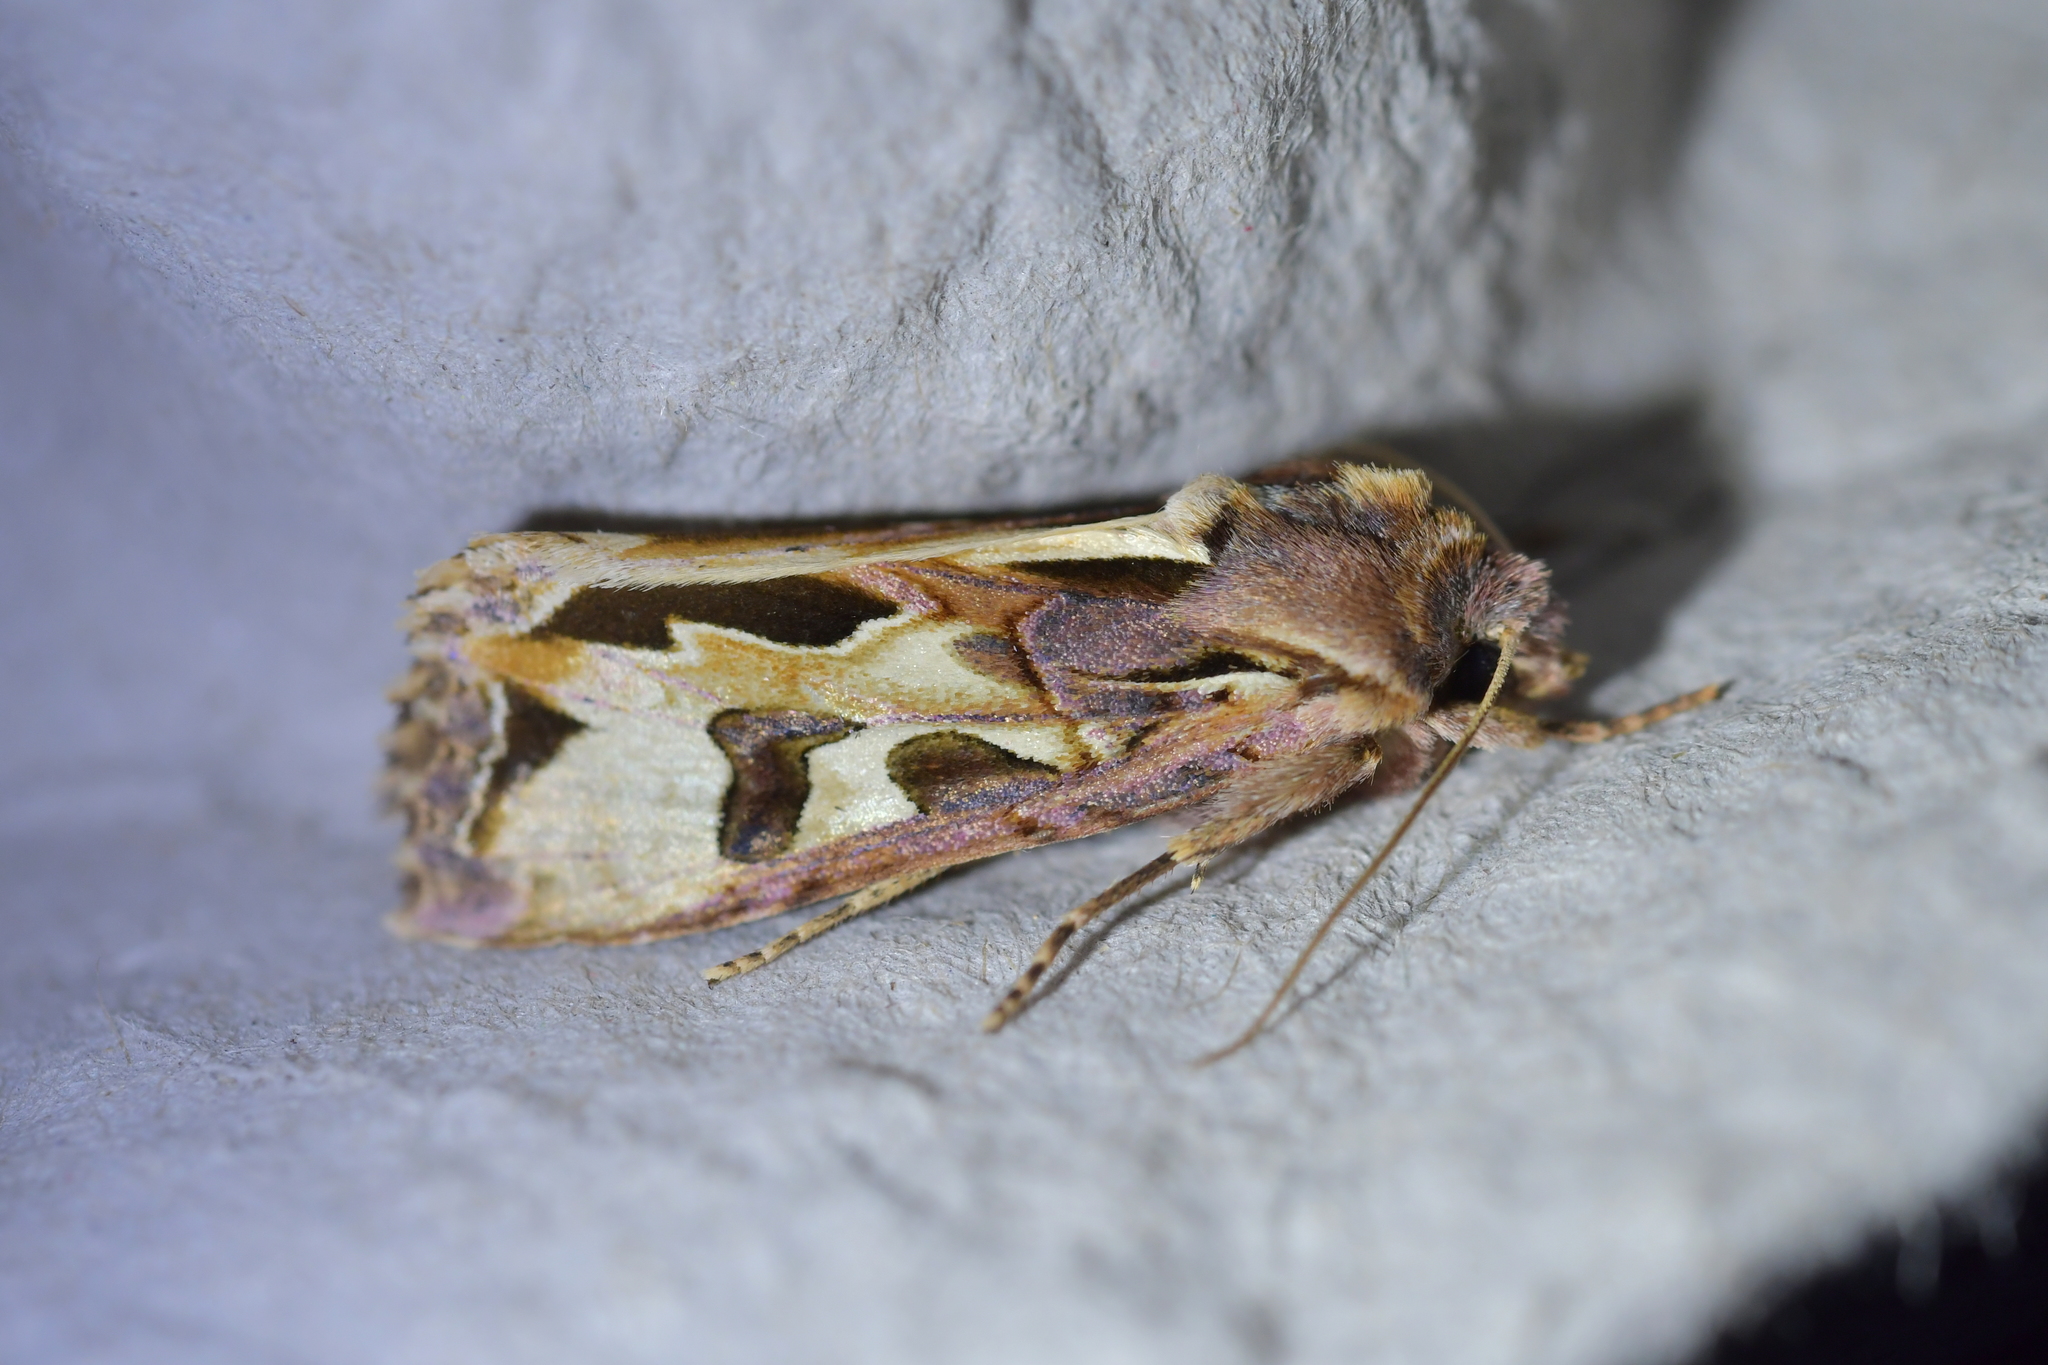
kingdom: Animalia
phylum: Arthropoda
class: Insecta
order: Lepidoptera
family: Noctuidae
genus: Ichneutica
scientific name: Ichneutica
